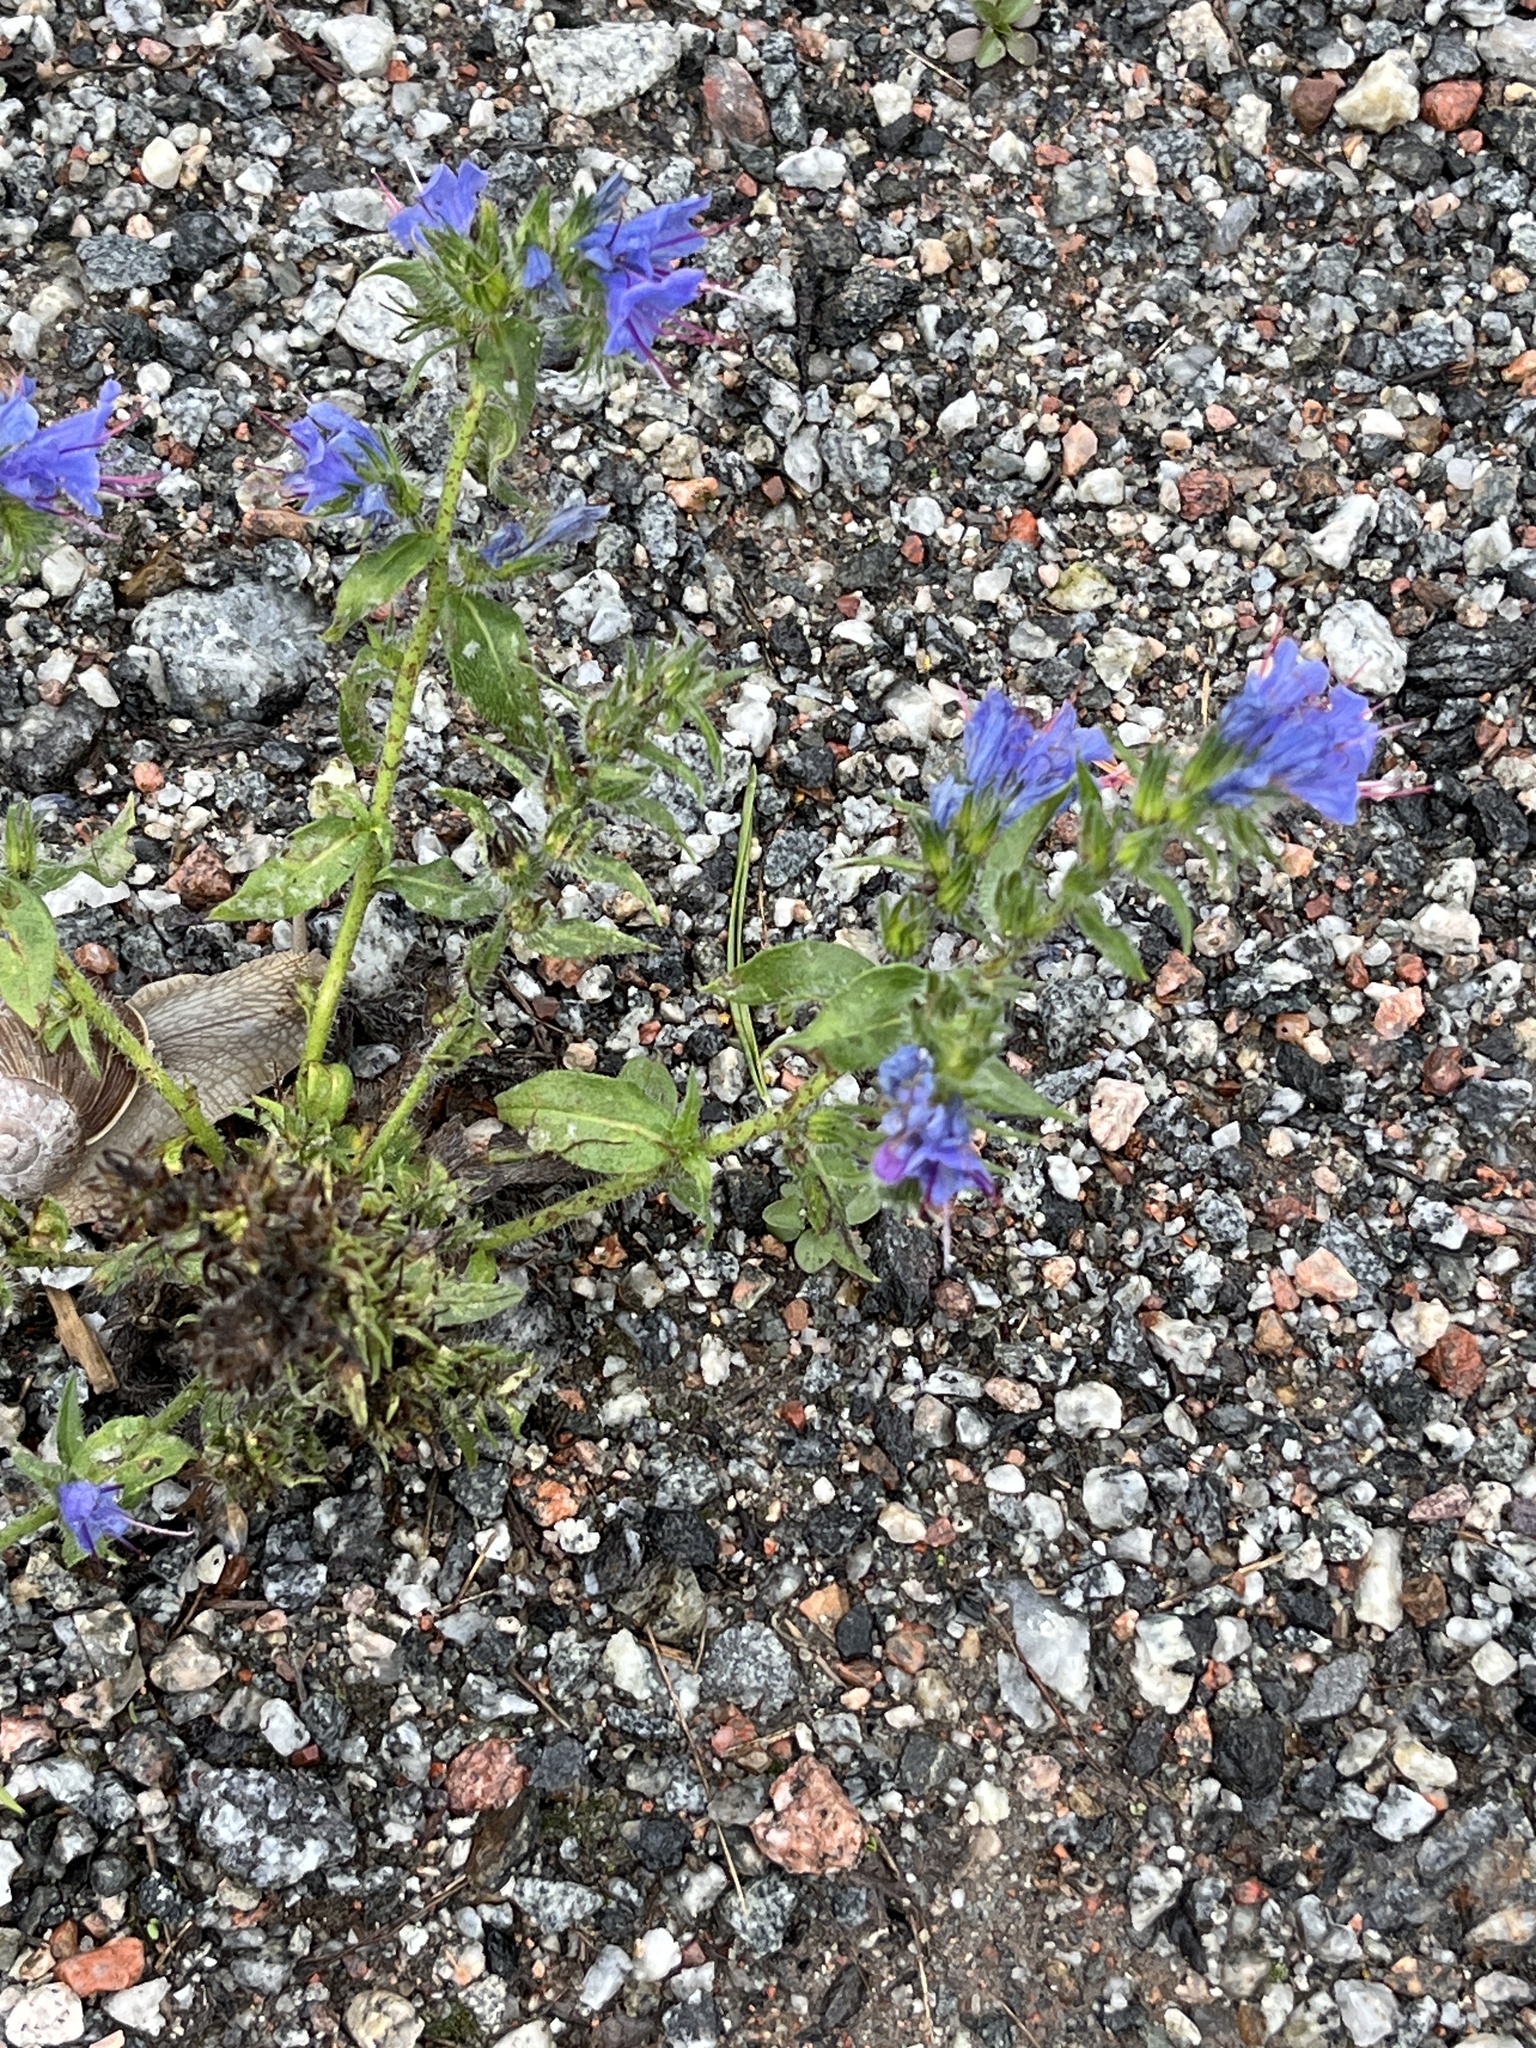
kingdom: Plantae
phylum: Tracheophyta
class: Magnoliopsida
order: Boraginales
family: Boraginaceae
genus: Echium
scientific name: Echium vulgare
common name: Common viper's bugloss
